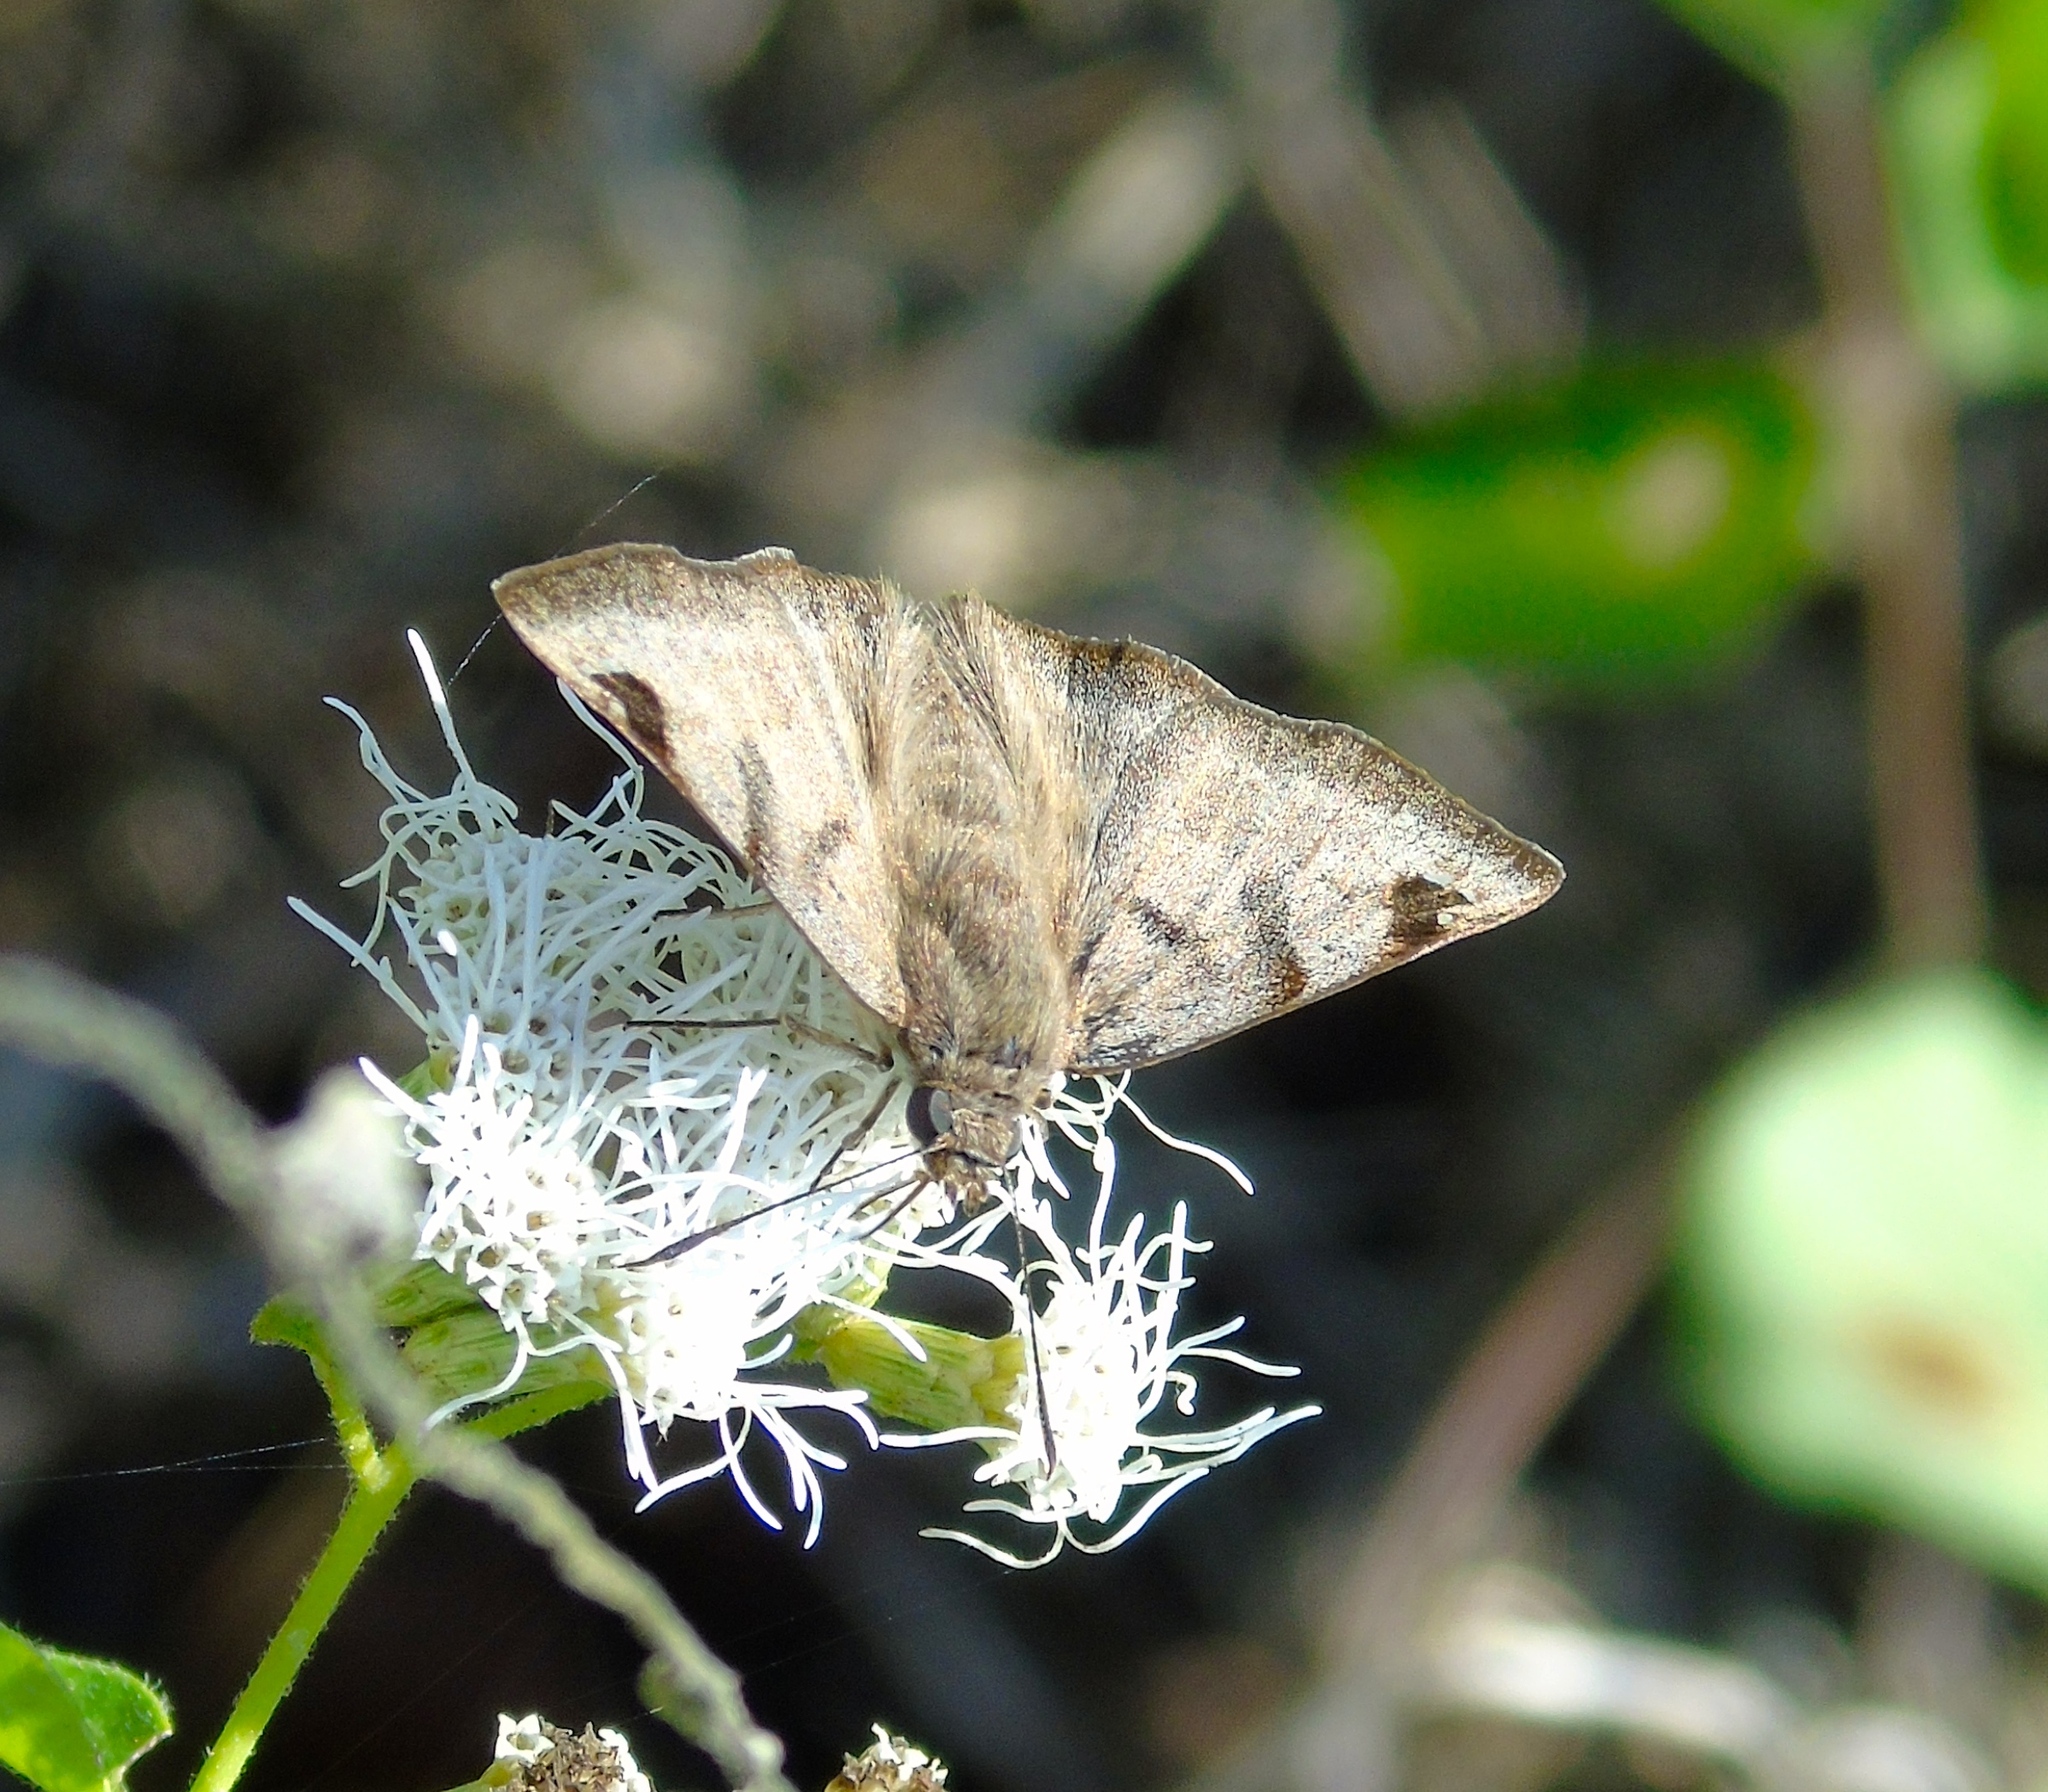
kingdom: Animalia
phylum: Arthropoda
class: Insecta
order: Lepidoptera
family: Hesperiidae
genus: Arteurotia
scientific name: Arteurotia tractipennis
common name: Starred skipper
